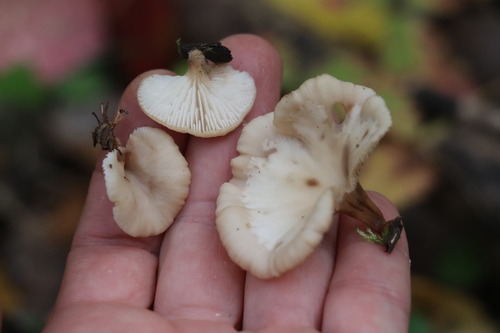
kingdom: Fungi
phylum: Basidiomycota
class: Agaricomycetes
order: Russulales
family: Auriscalpiaceae
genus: Lentinellus
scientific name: Lentinellus micheneri
